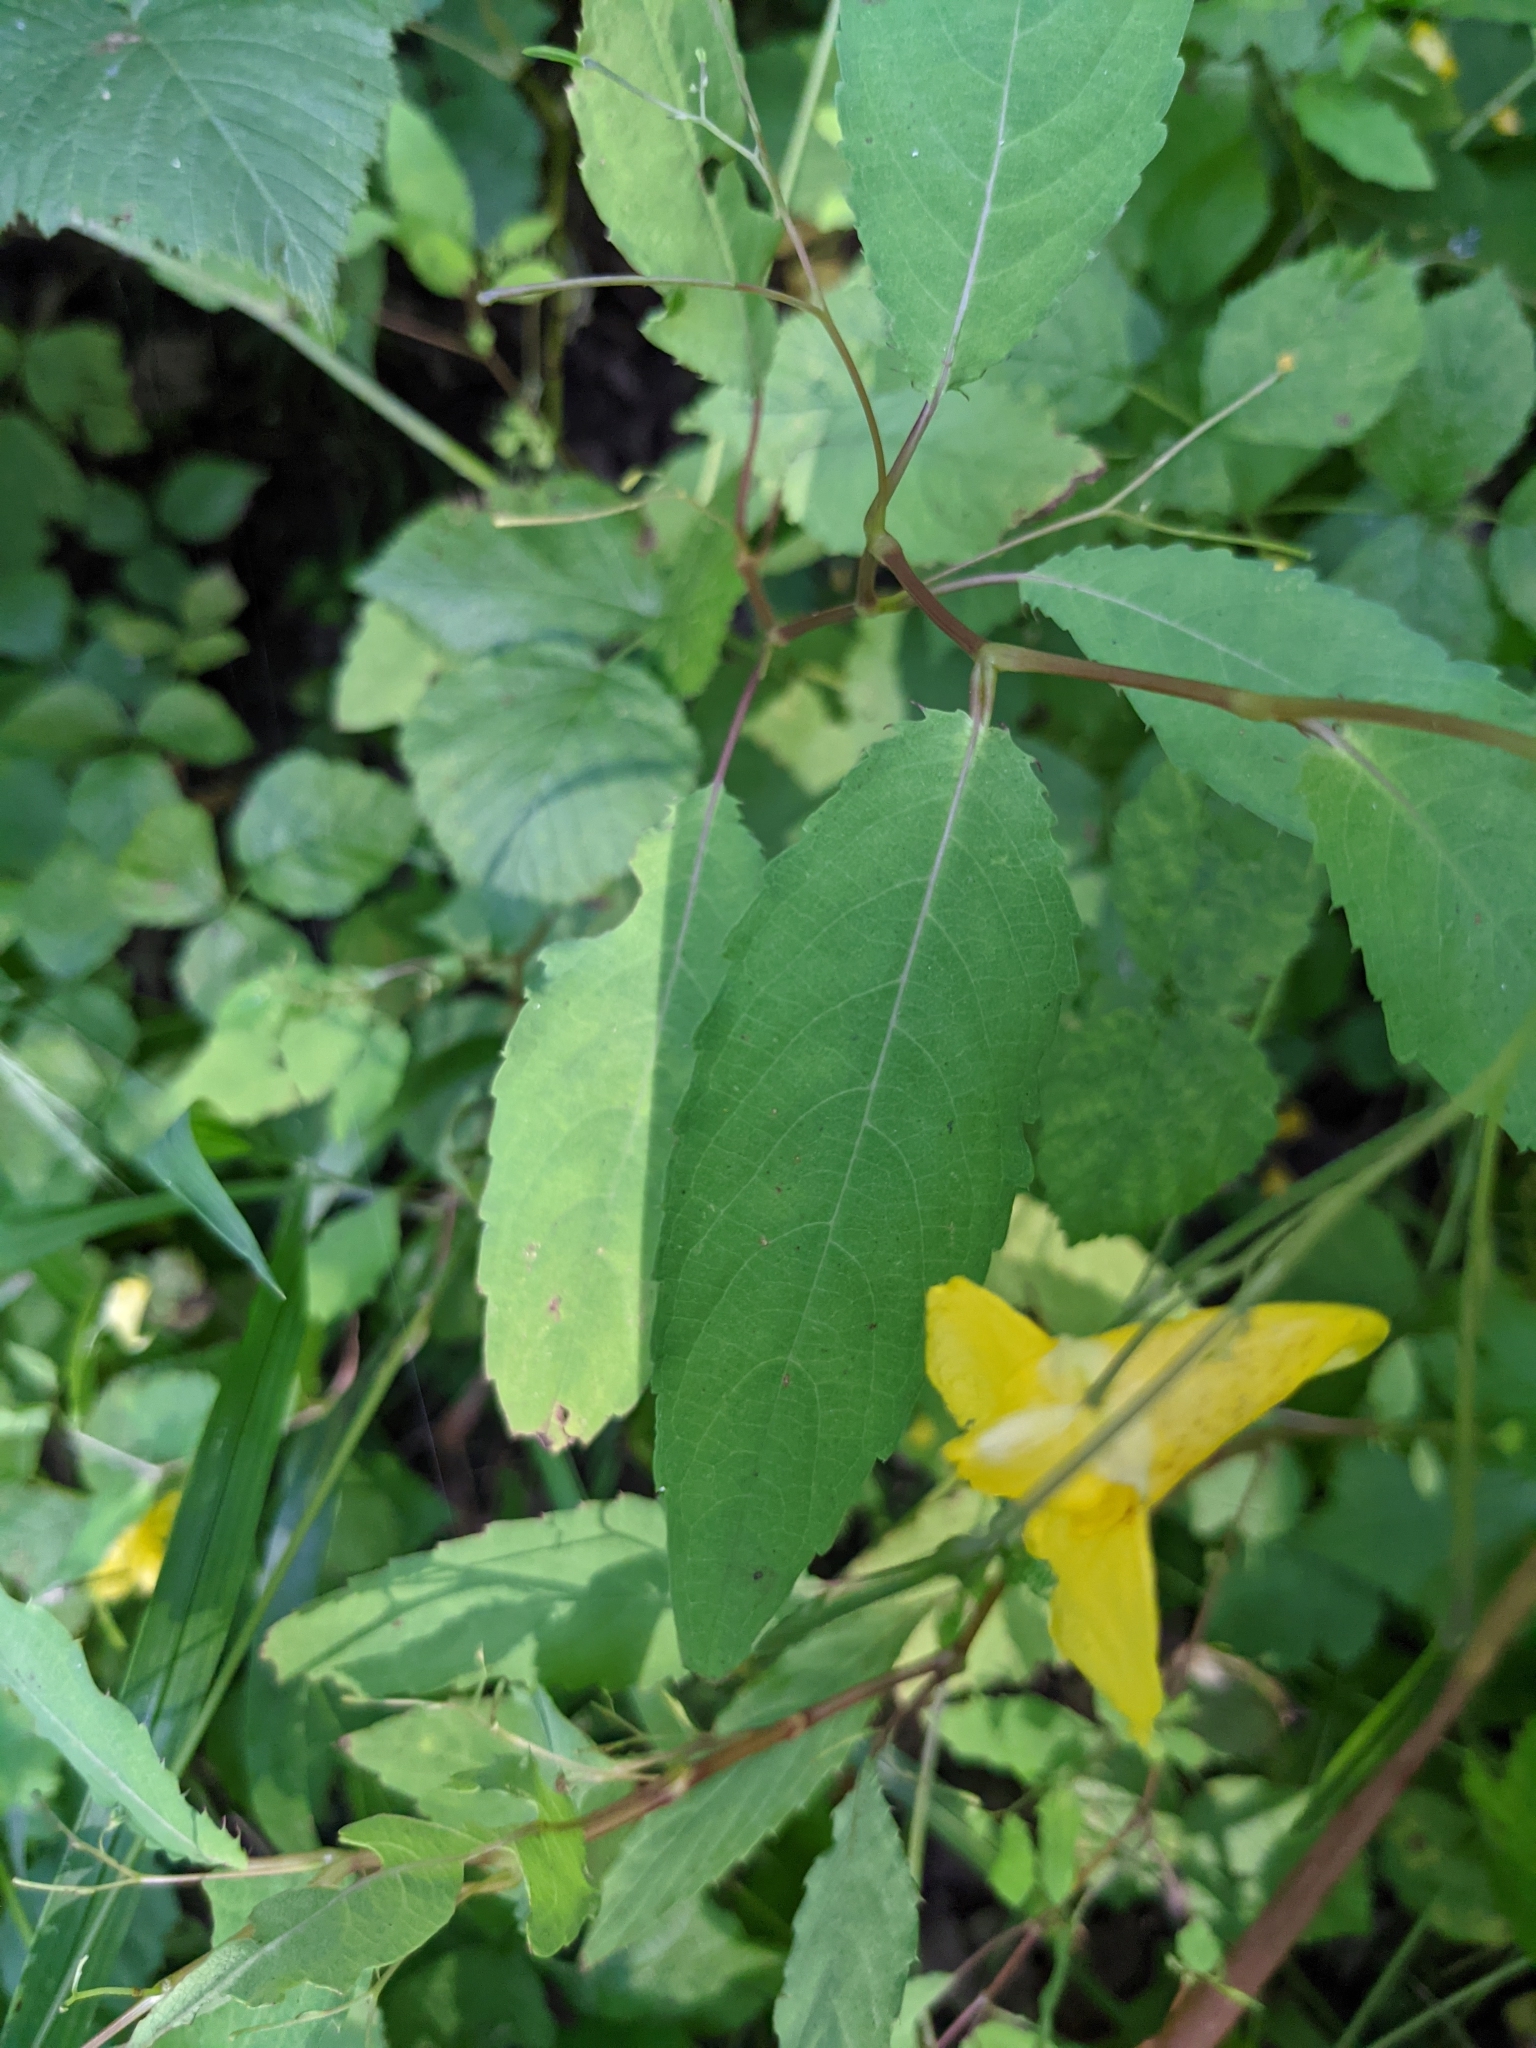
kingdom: Plantae
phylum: Tracheophyta
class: Magnoliopsida
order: Ericales
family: Balsaminaceae
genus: Impatiens
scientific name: Impatiens noli-tangere
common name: Touch-me-not balsam
